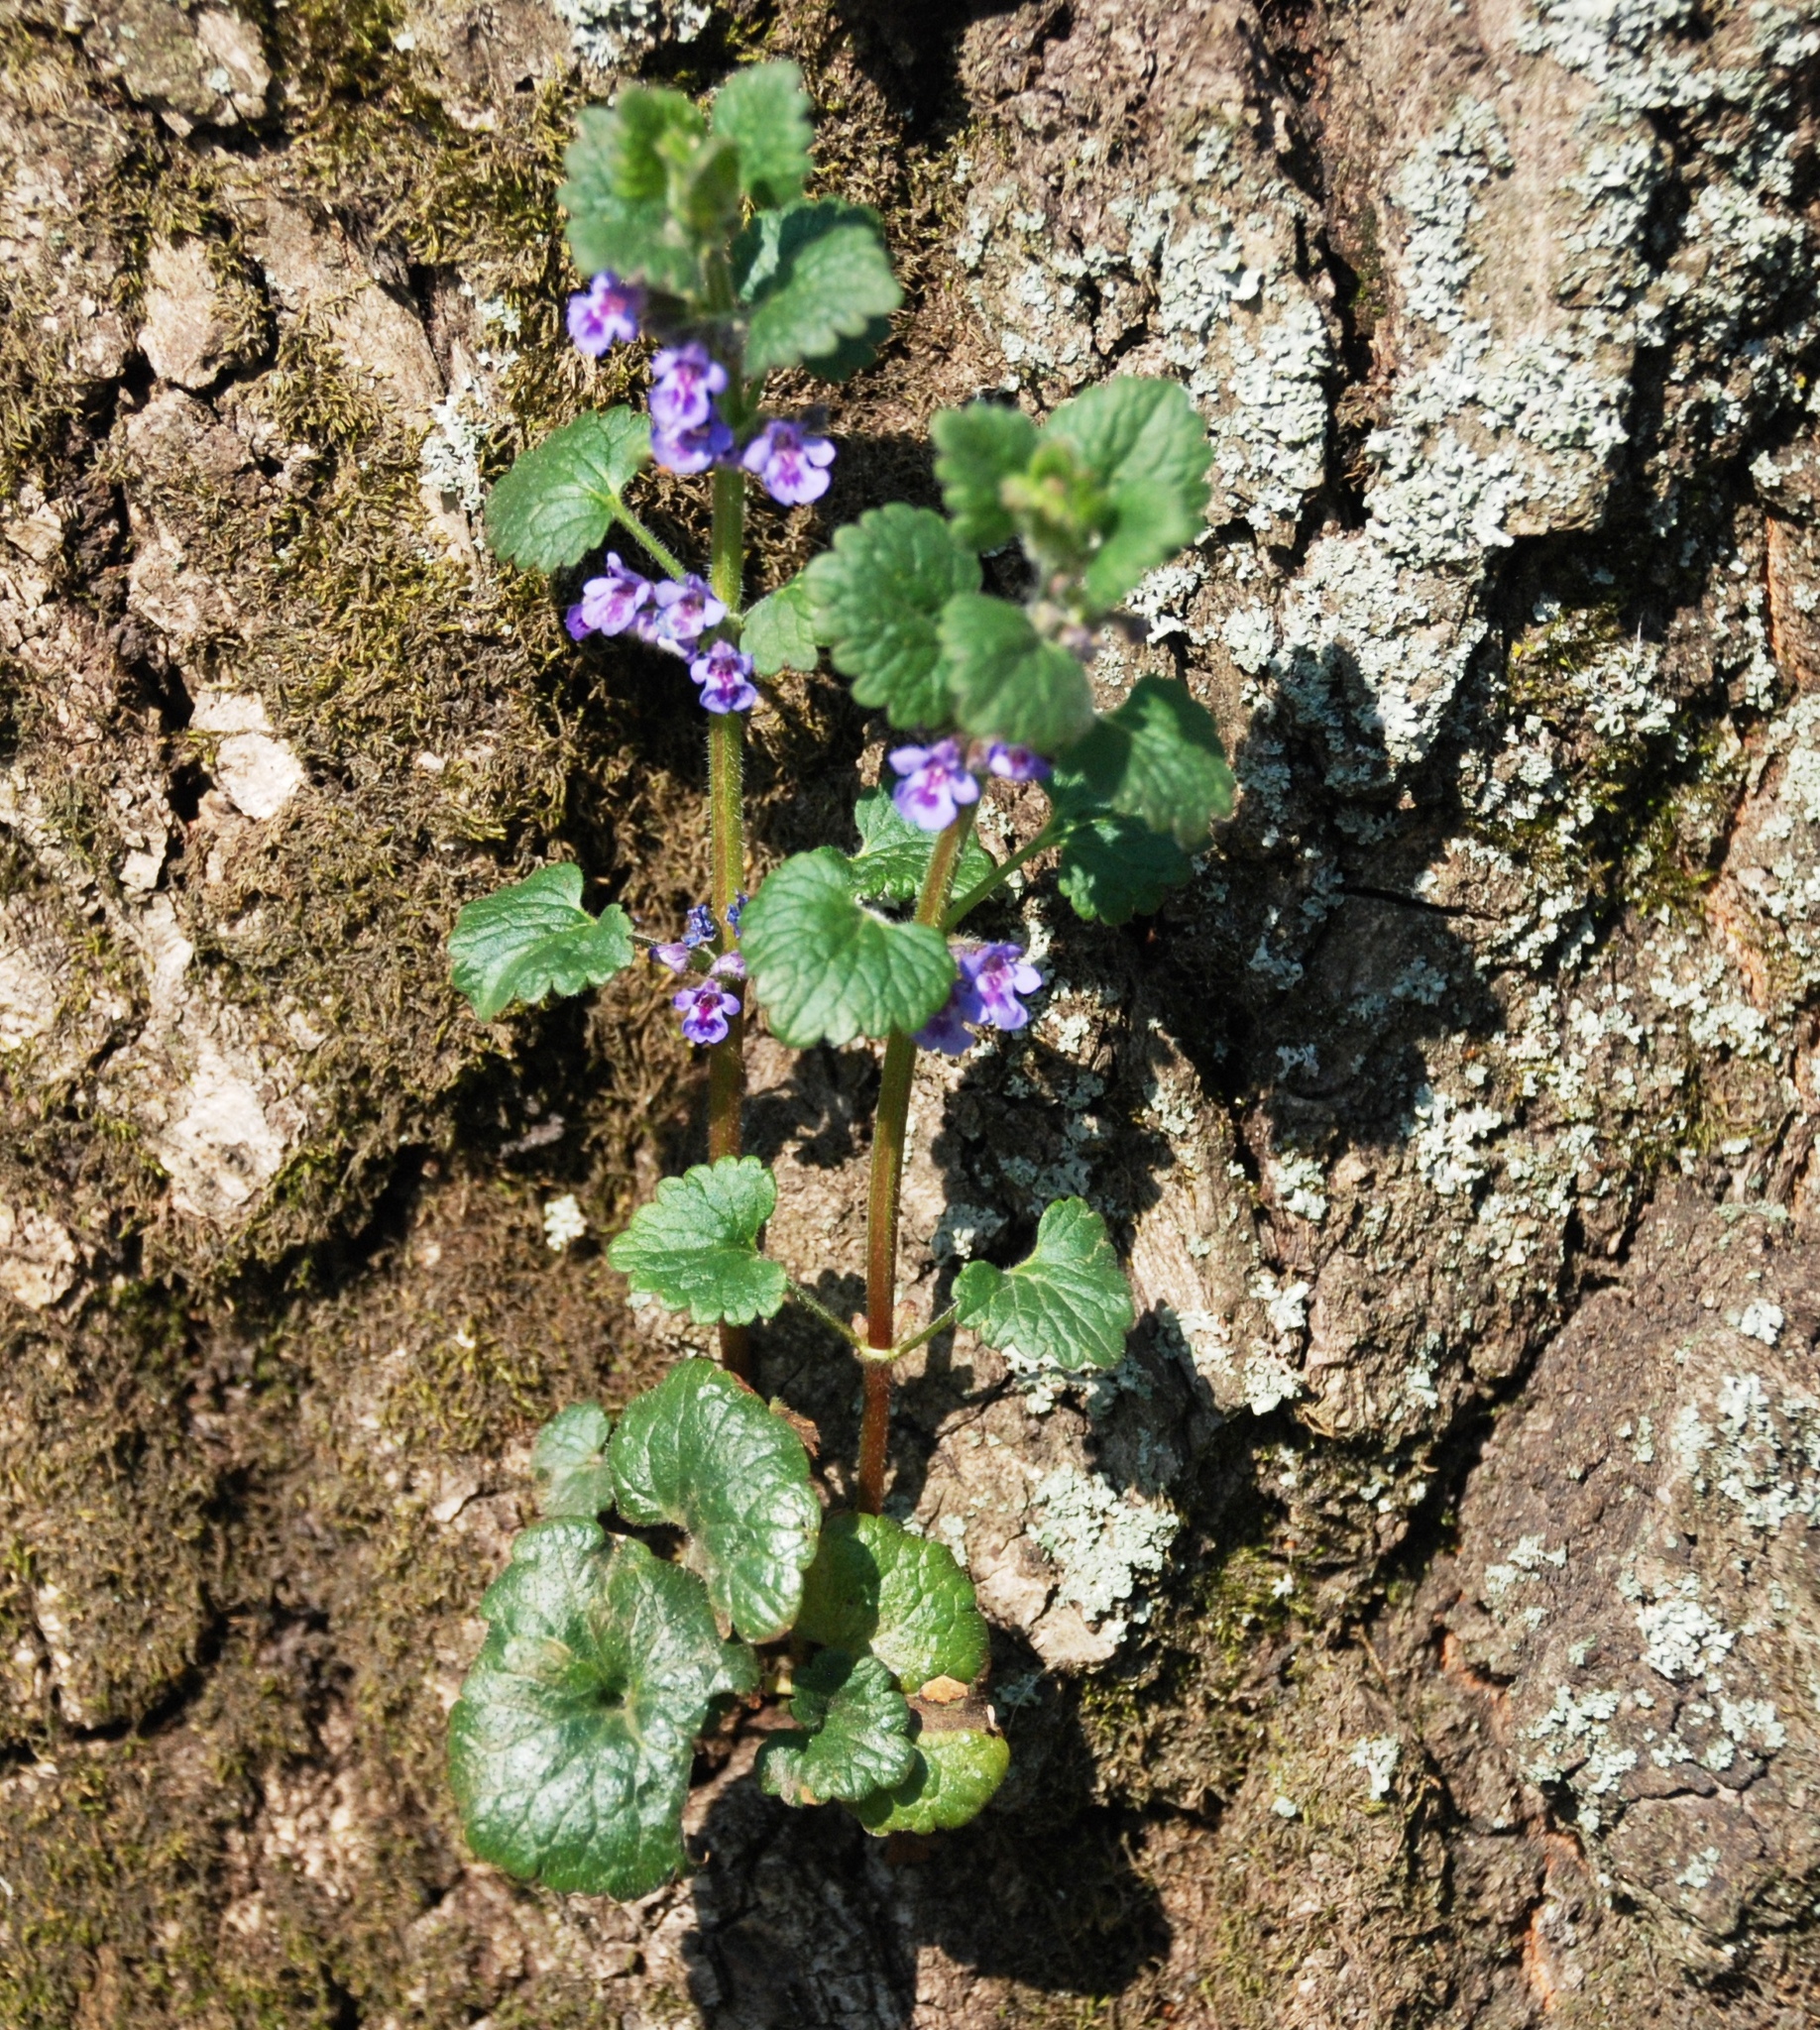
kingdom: Plantae
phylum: Tracheophyta
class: Magnoliopsida
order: Lamiales
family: Lamiaceae
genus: Glechoma
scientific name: Glechoma hederacea
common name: Ground ivy
